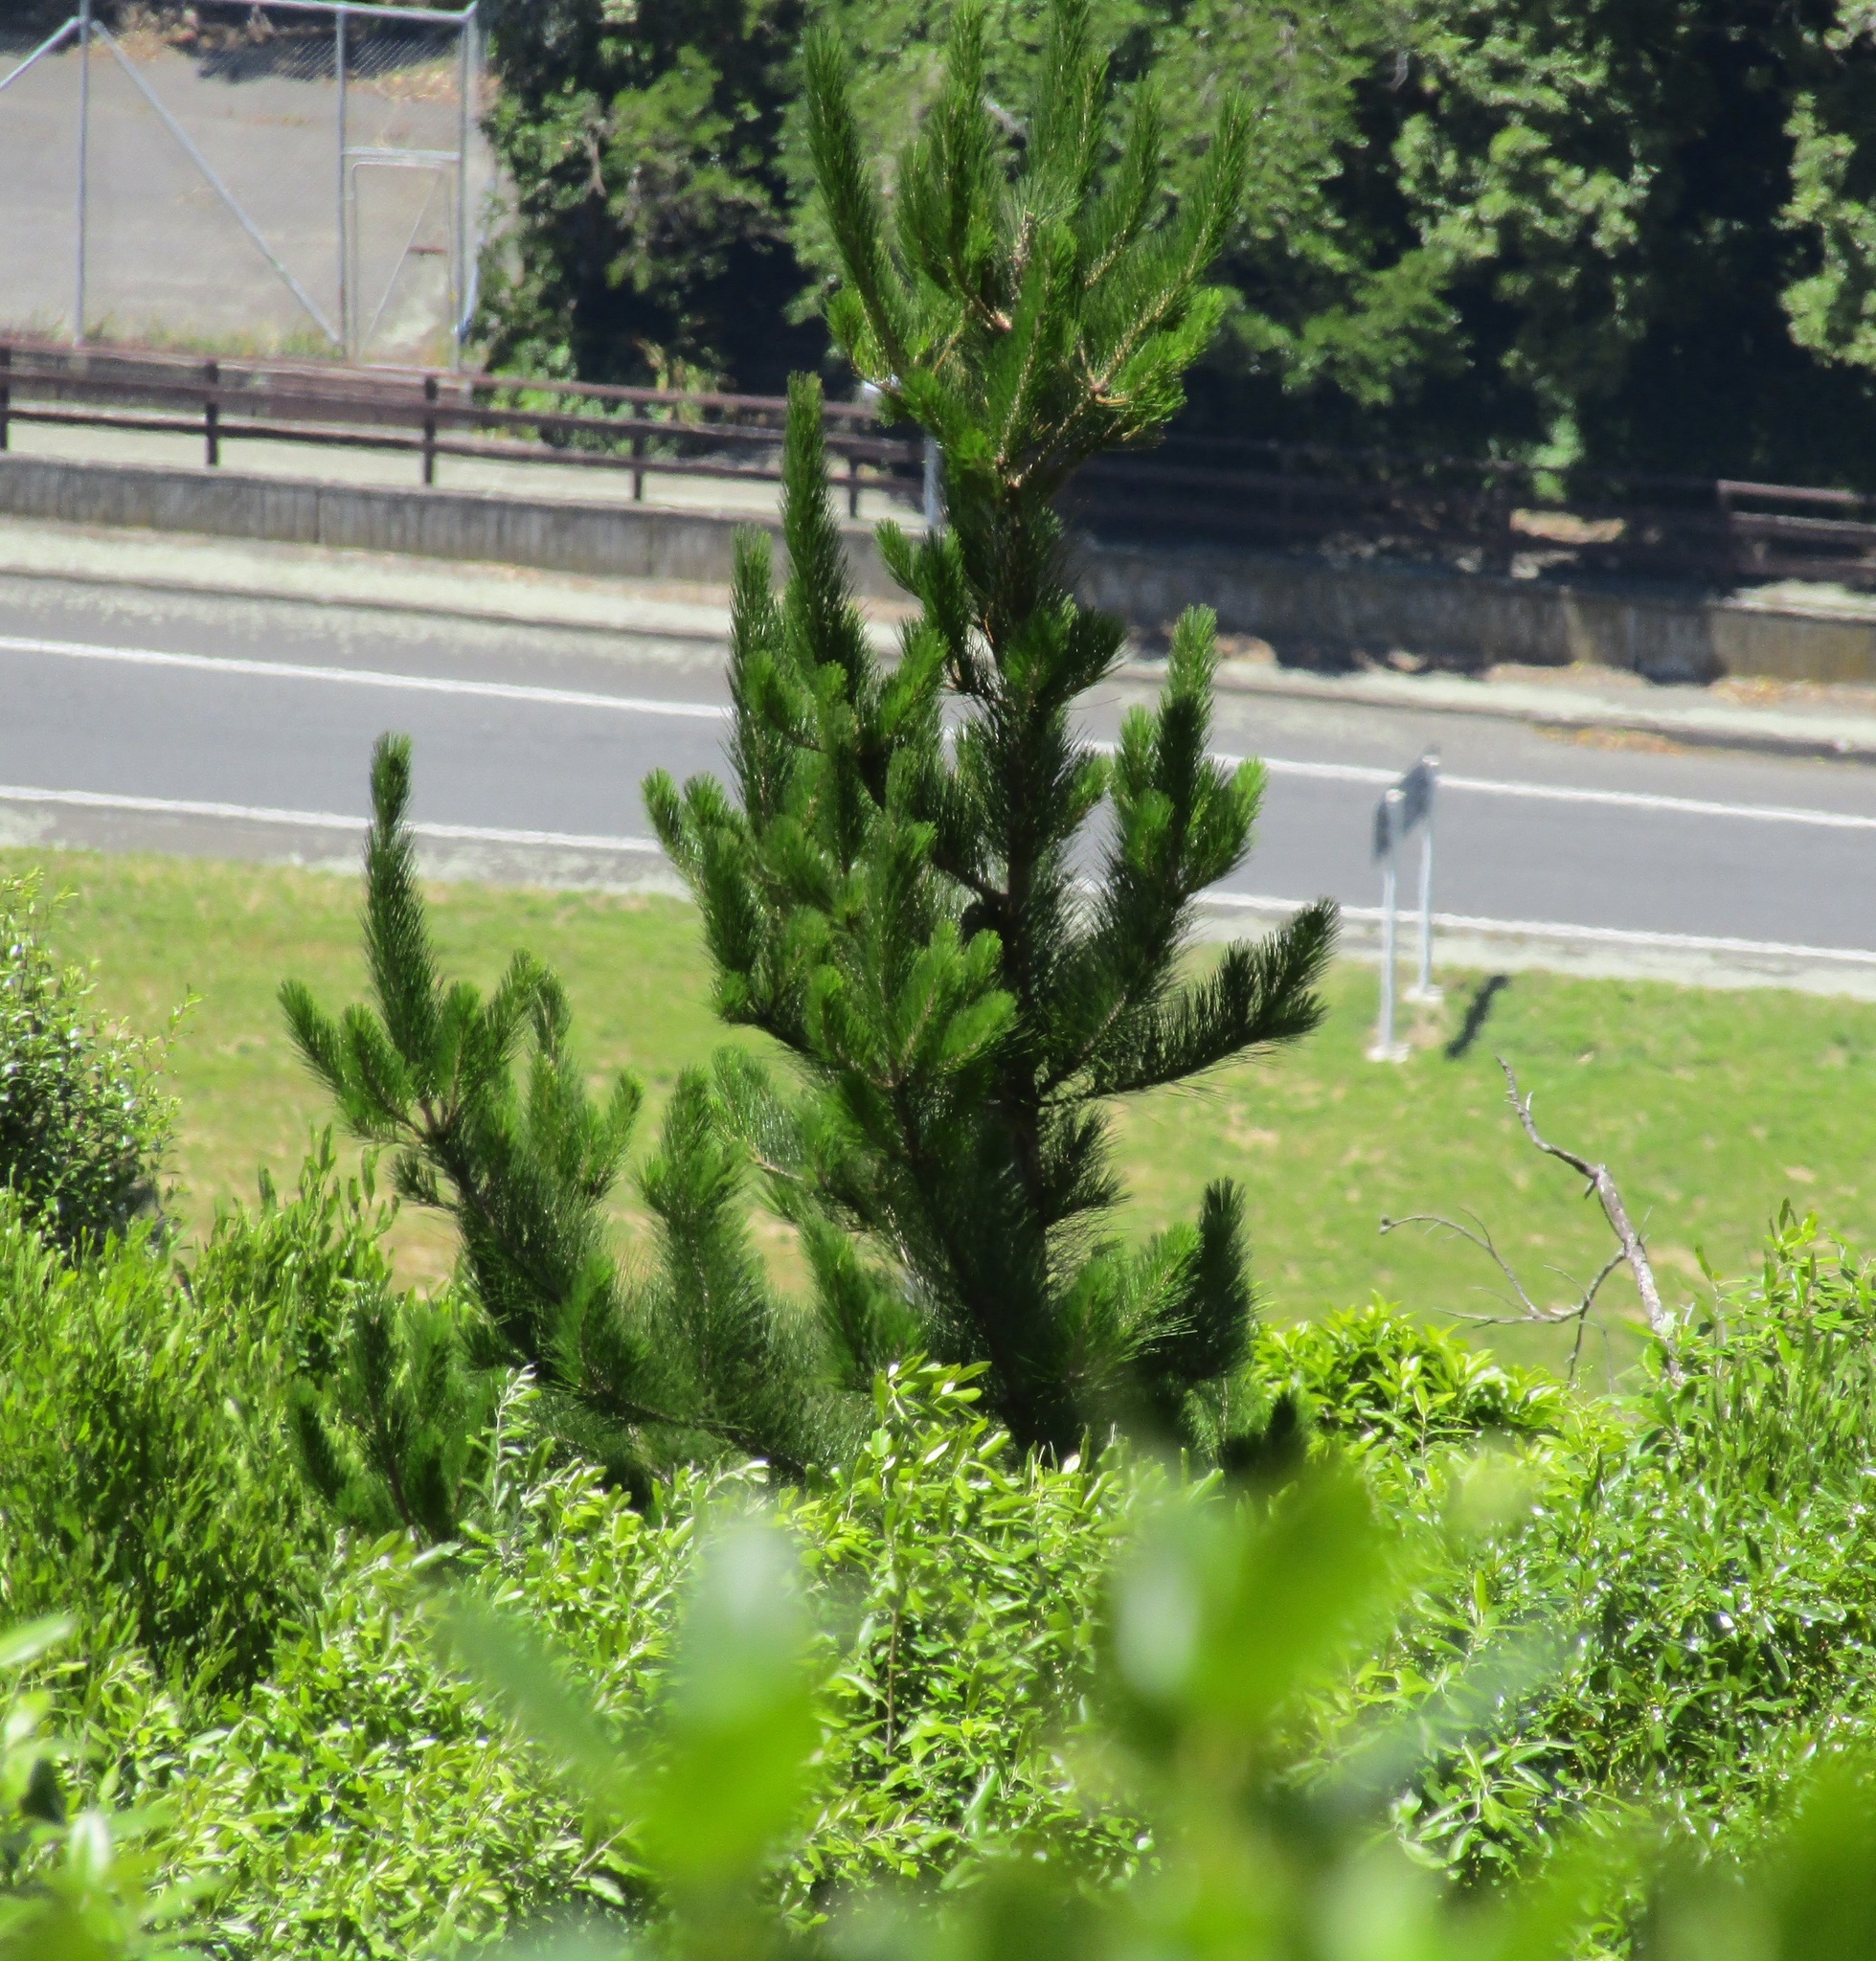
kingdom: Plantae
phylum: Tracheophyta
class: Pinopsida
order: Pinales
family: Pinaceae
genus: Pinus
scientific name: Pinus radiata
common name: Monterey pine
